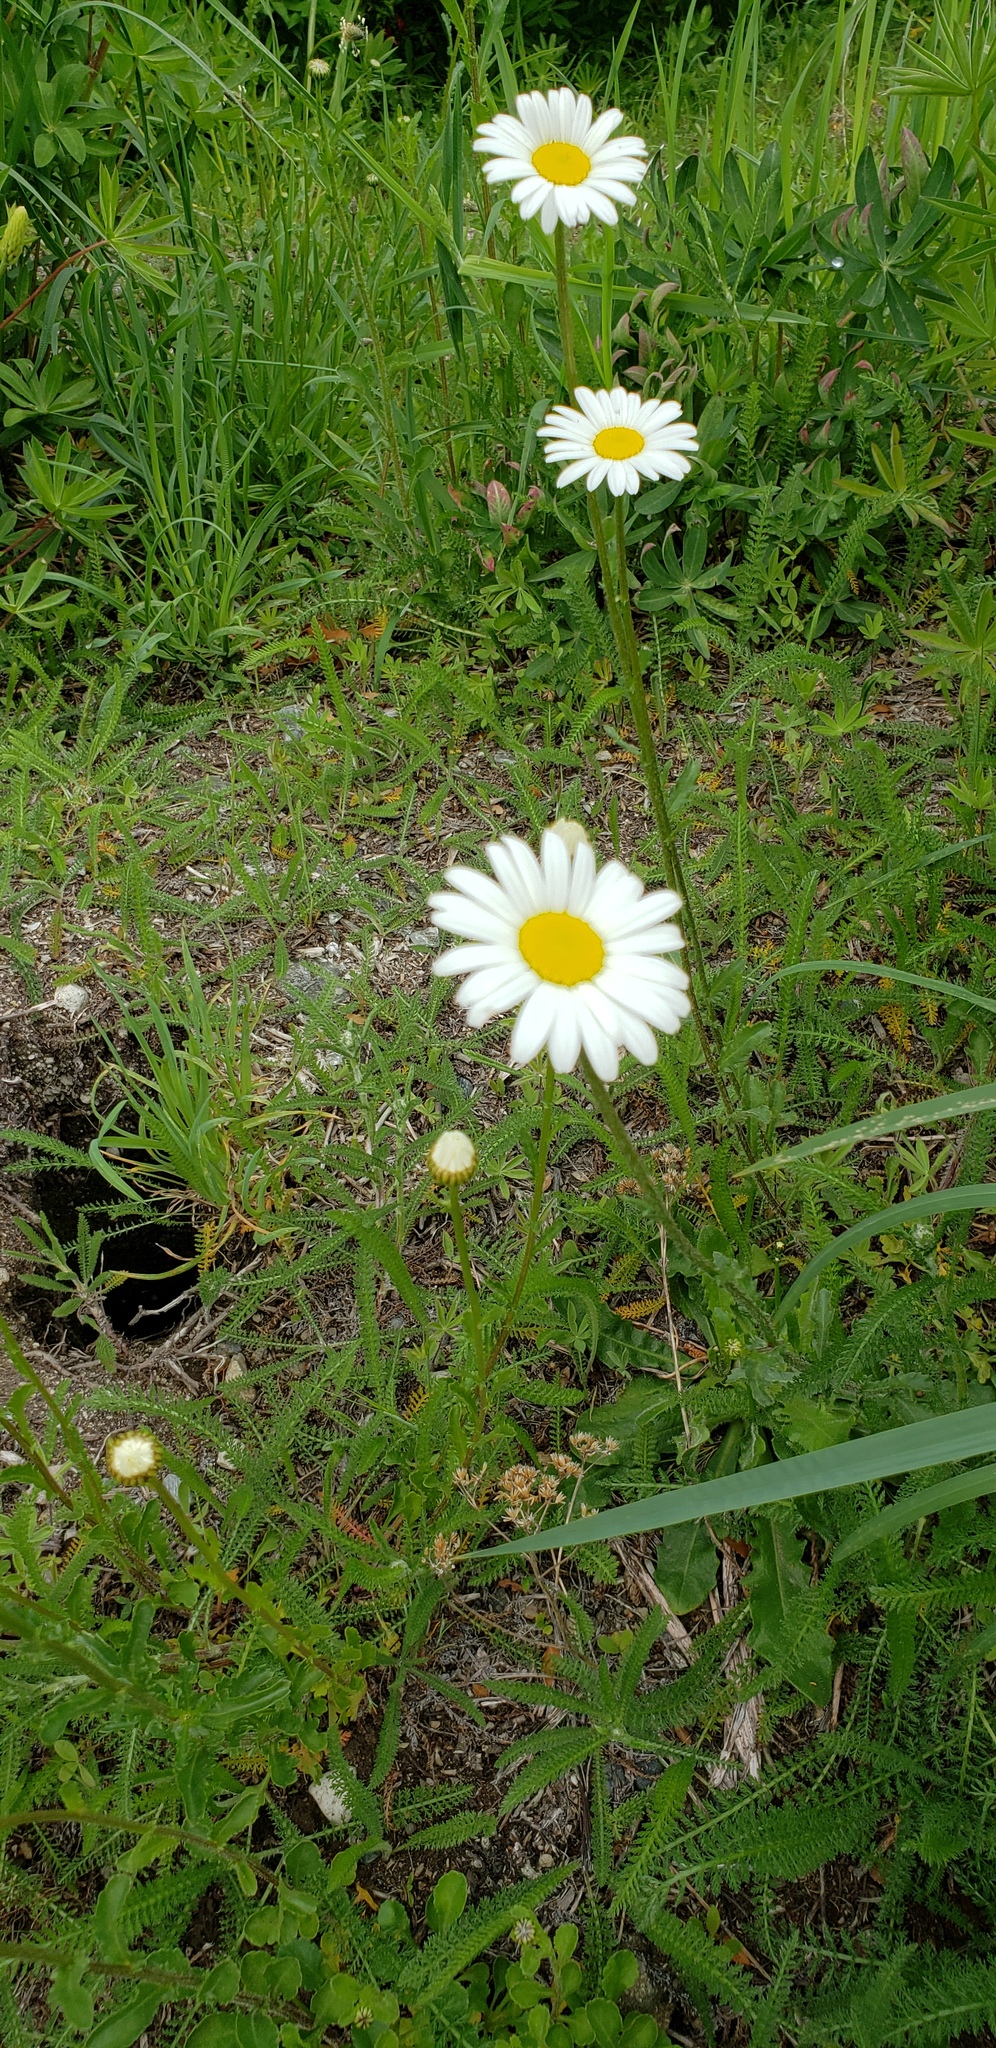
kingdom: Plantae
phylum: Tracheophyta
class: Magnoliopsida
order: Asterales
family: Asteraceae
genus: Leucanthemum
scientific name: Leucanthemum vulgare
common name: Oxeye daisy
